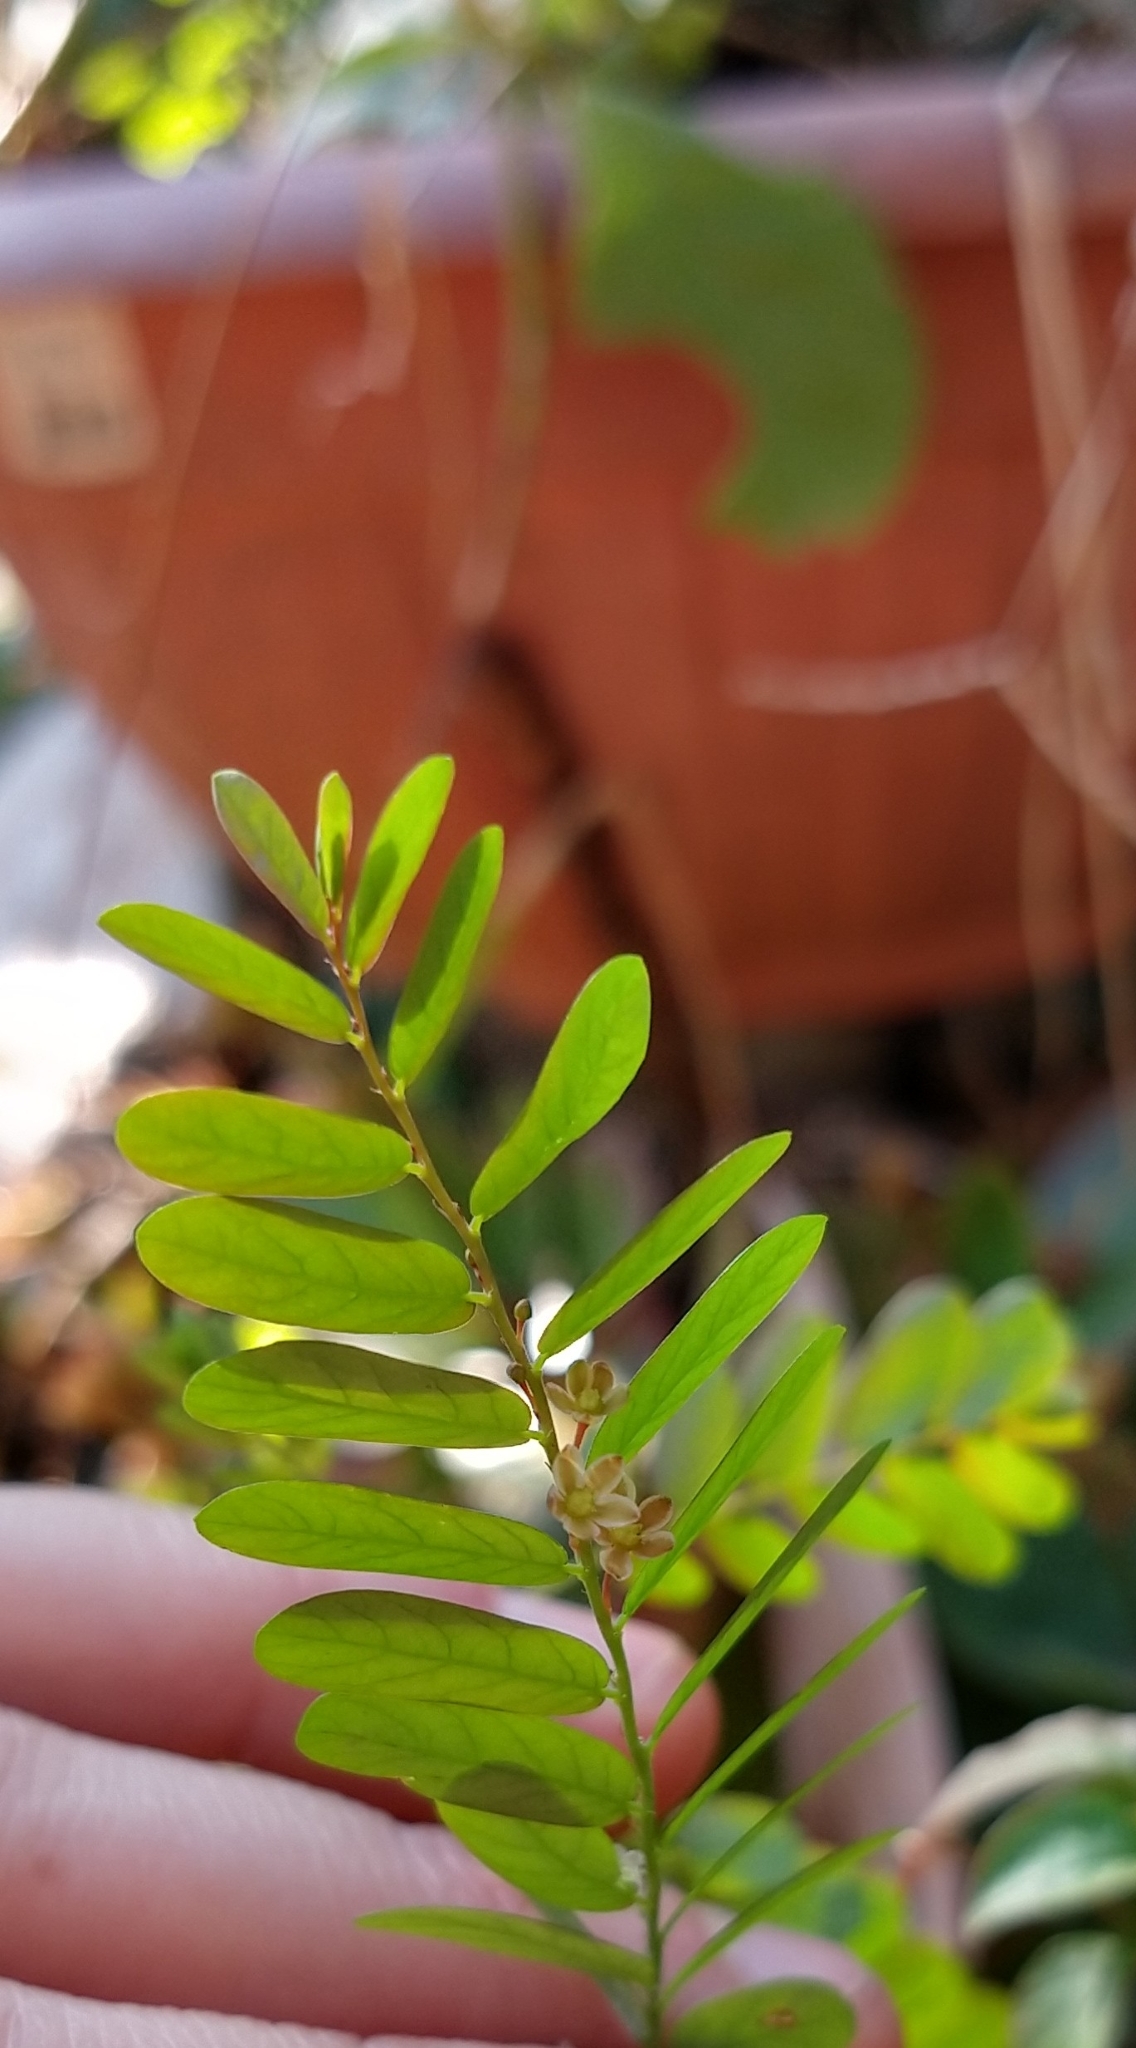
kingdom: Plantae
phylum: Tracheophyta
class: Magnoliopsida
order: Malpighiales
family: Phyllanthaceae
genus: Phyllanthus
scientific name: Phyllanthus niruri
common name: Niruri
